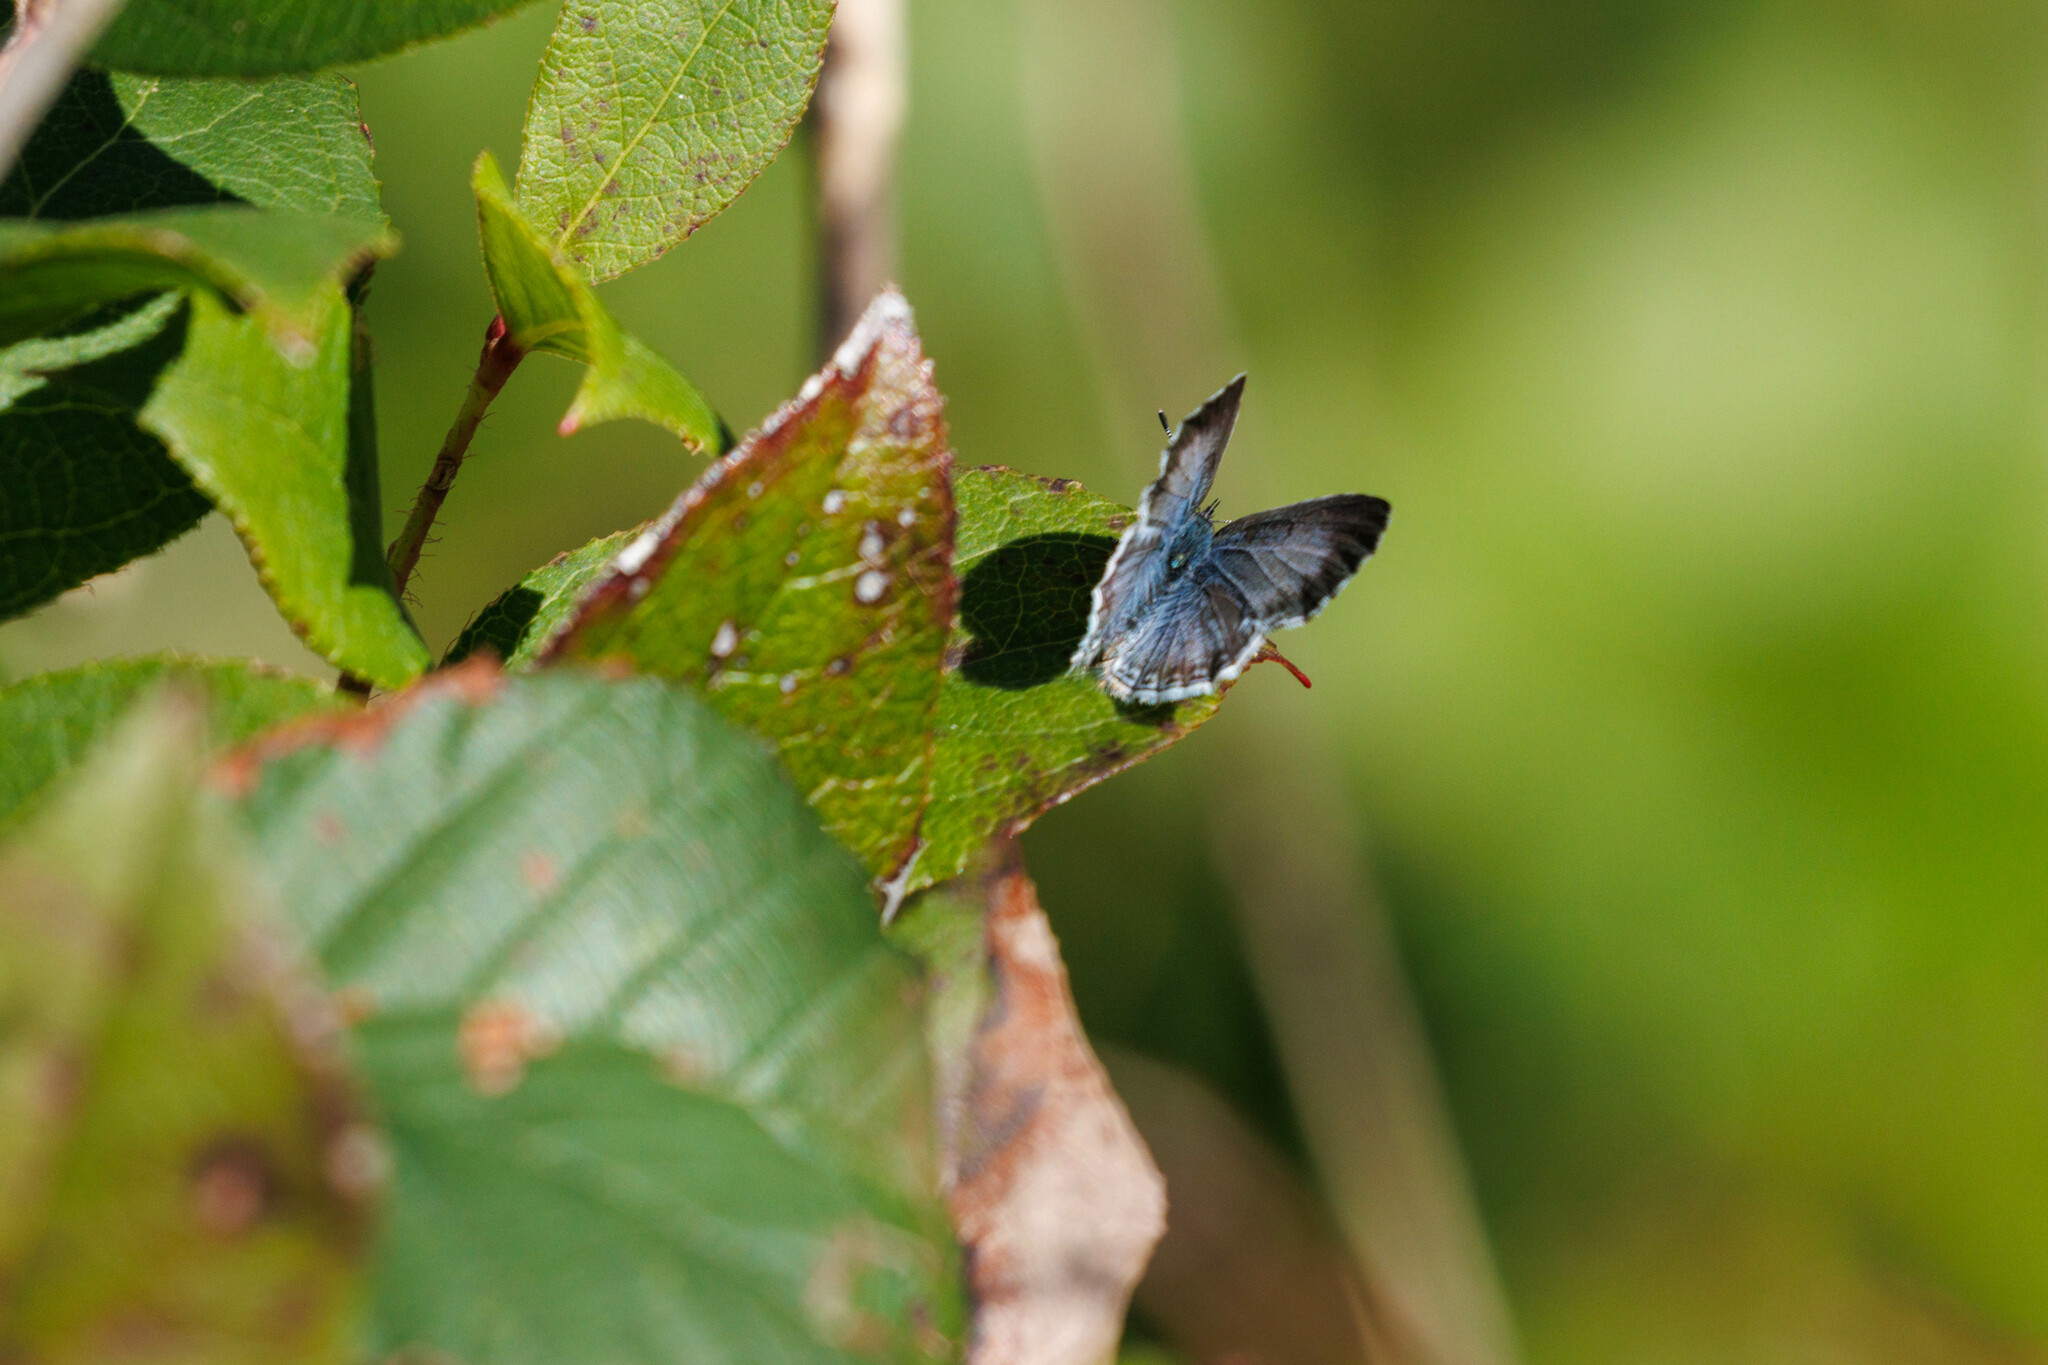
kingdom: Animalia
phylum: Arthropoda
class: Insecta
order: Lepidoptera
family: Lycaenidae
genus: Celastrina
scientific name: Celastrina ladon
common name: Spring azure
